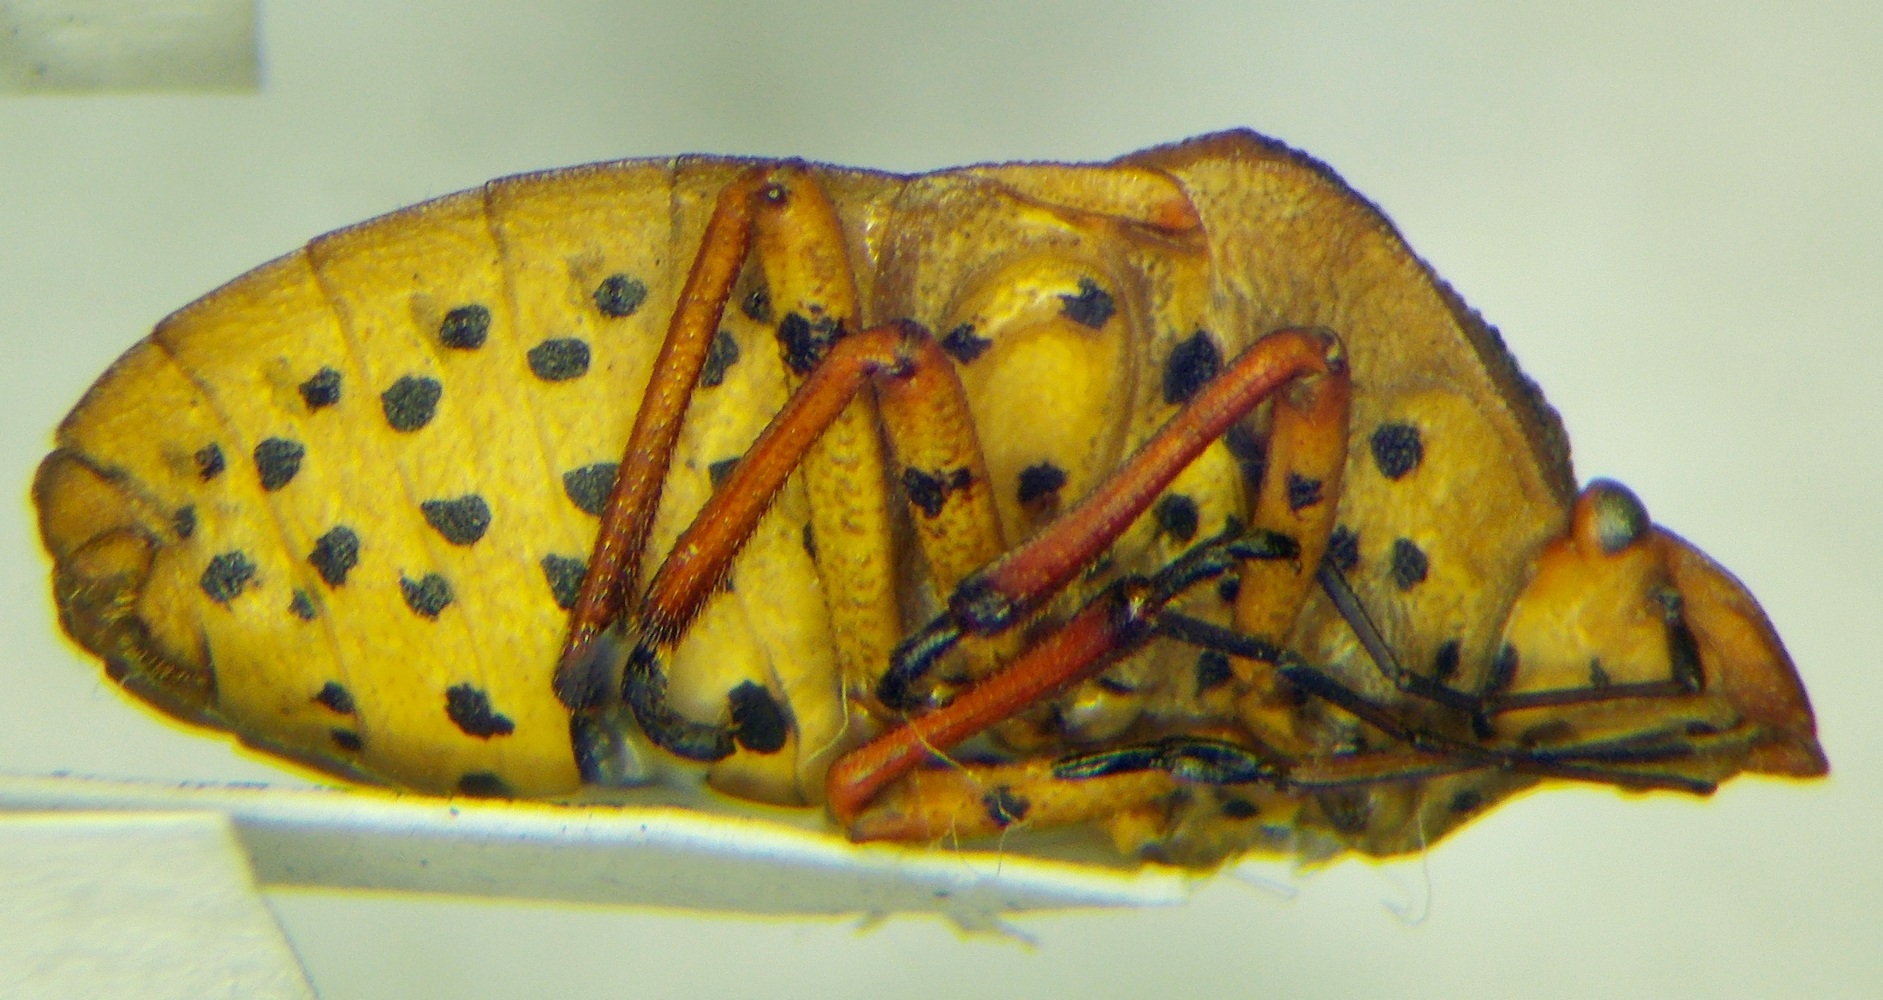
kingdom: Animalia
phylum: Arthropoda
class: Insecta
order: Hemiptera
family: Pentatomidae
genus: Graphosoma
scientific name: Graphosoma semipunctatum
